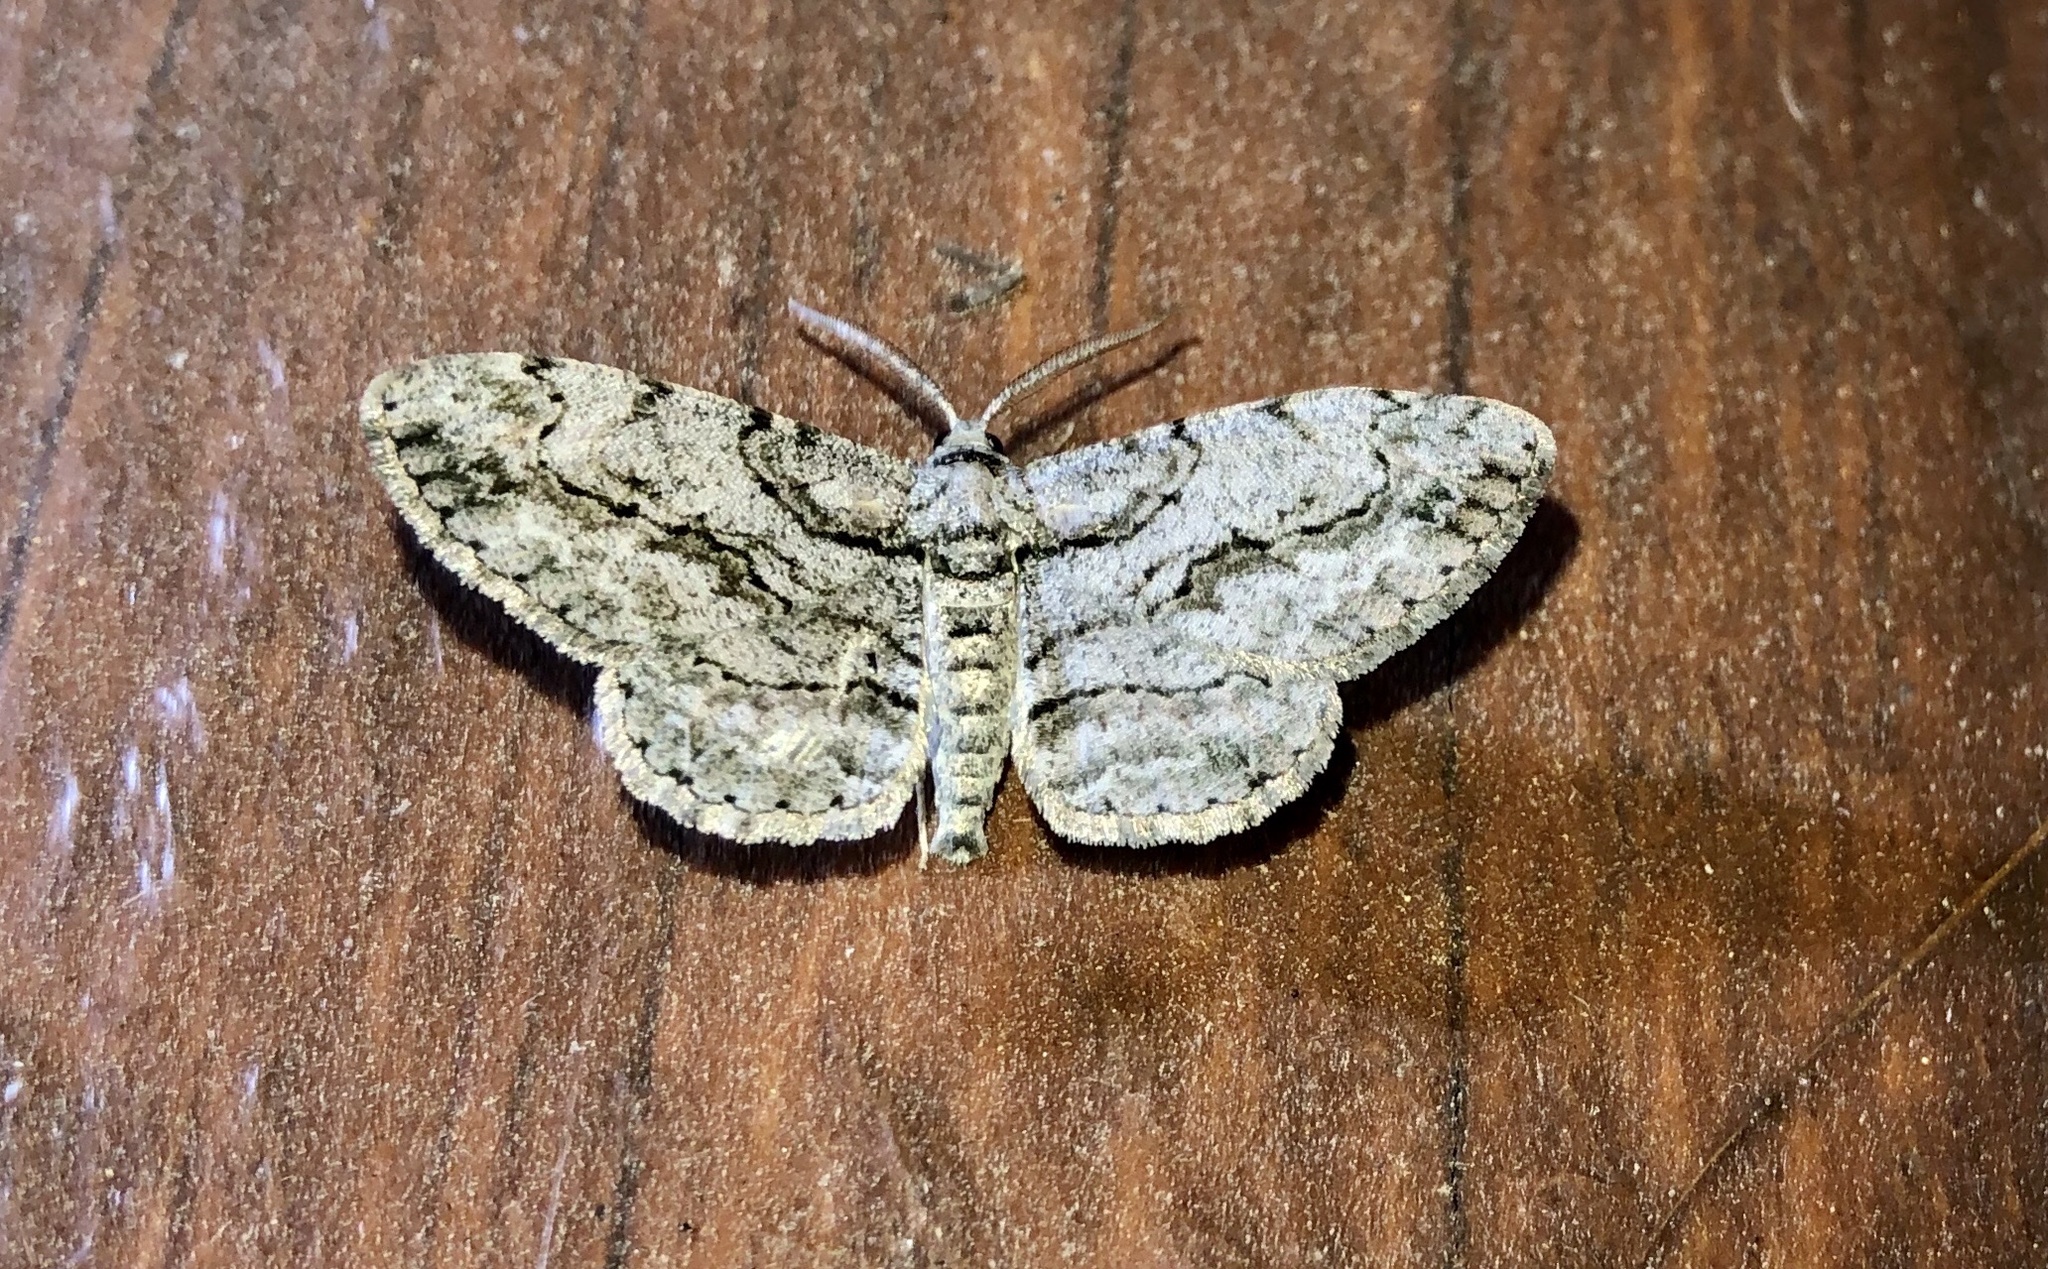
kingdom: Animalia
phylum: Arthropoda
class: Insecta
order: Lepidoptera
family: Geometridae
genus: Anavitrinella
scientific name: Anavitrinella pampinaria
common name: Common gray
